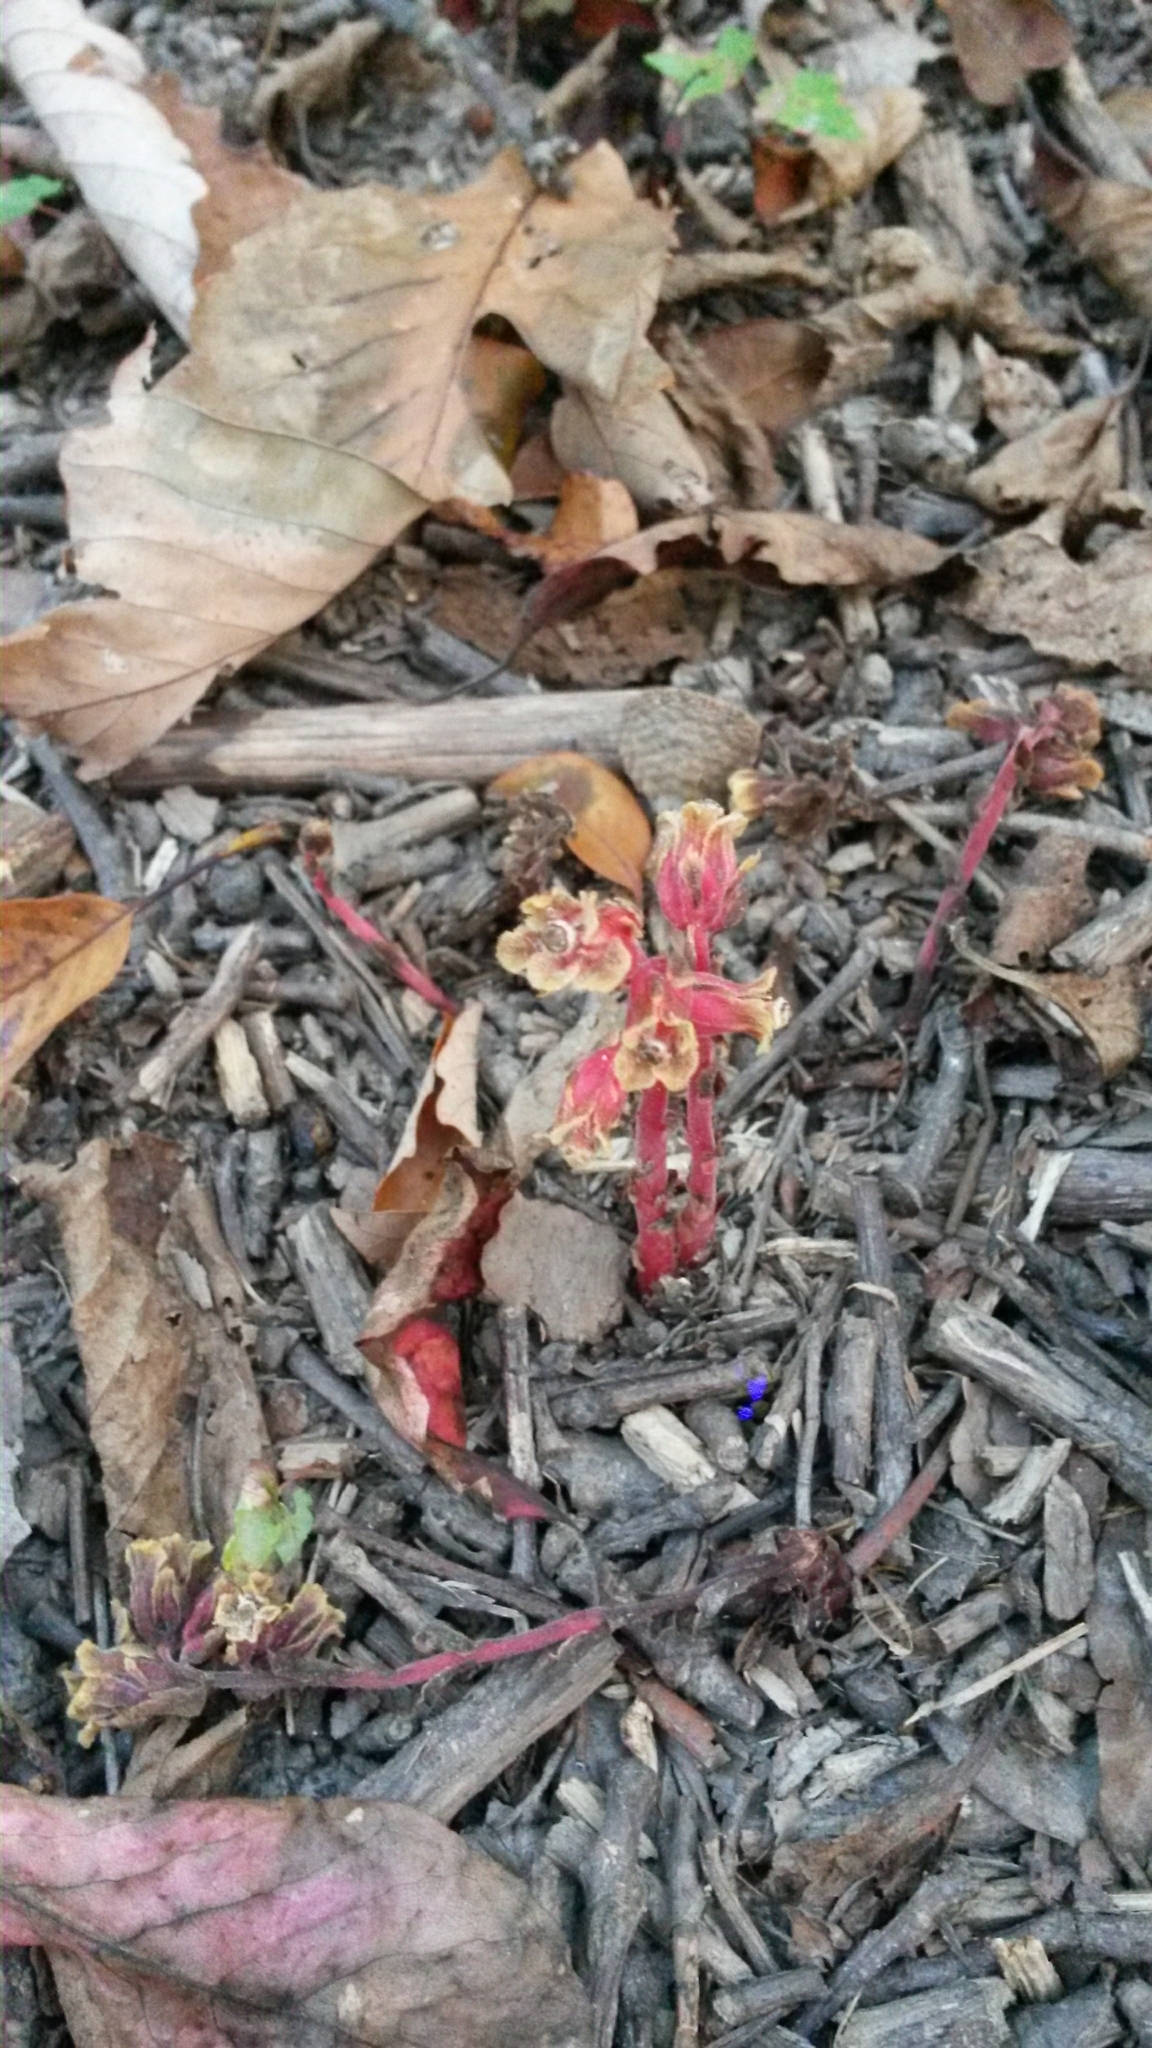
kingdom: Plantae
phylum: Tracheophyta
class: Magnoliopsida
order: Ericales
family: Ericaceae
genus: Hypopitys
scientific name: Hypopitys monotropa
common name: Yellow bird's-nest
